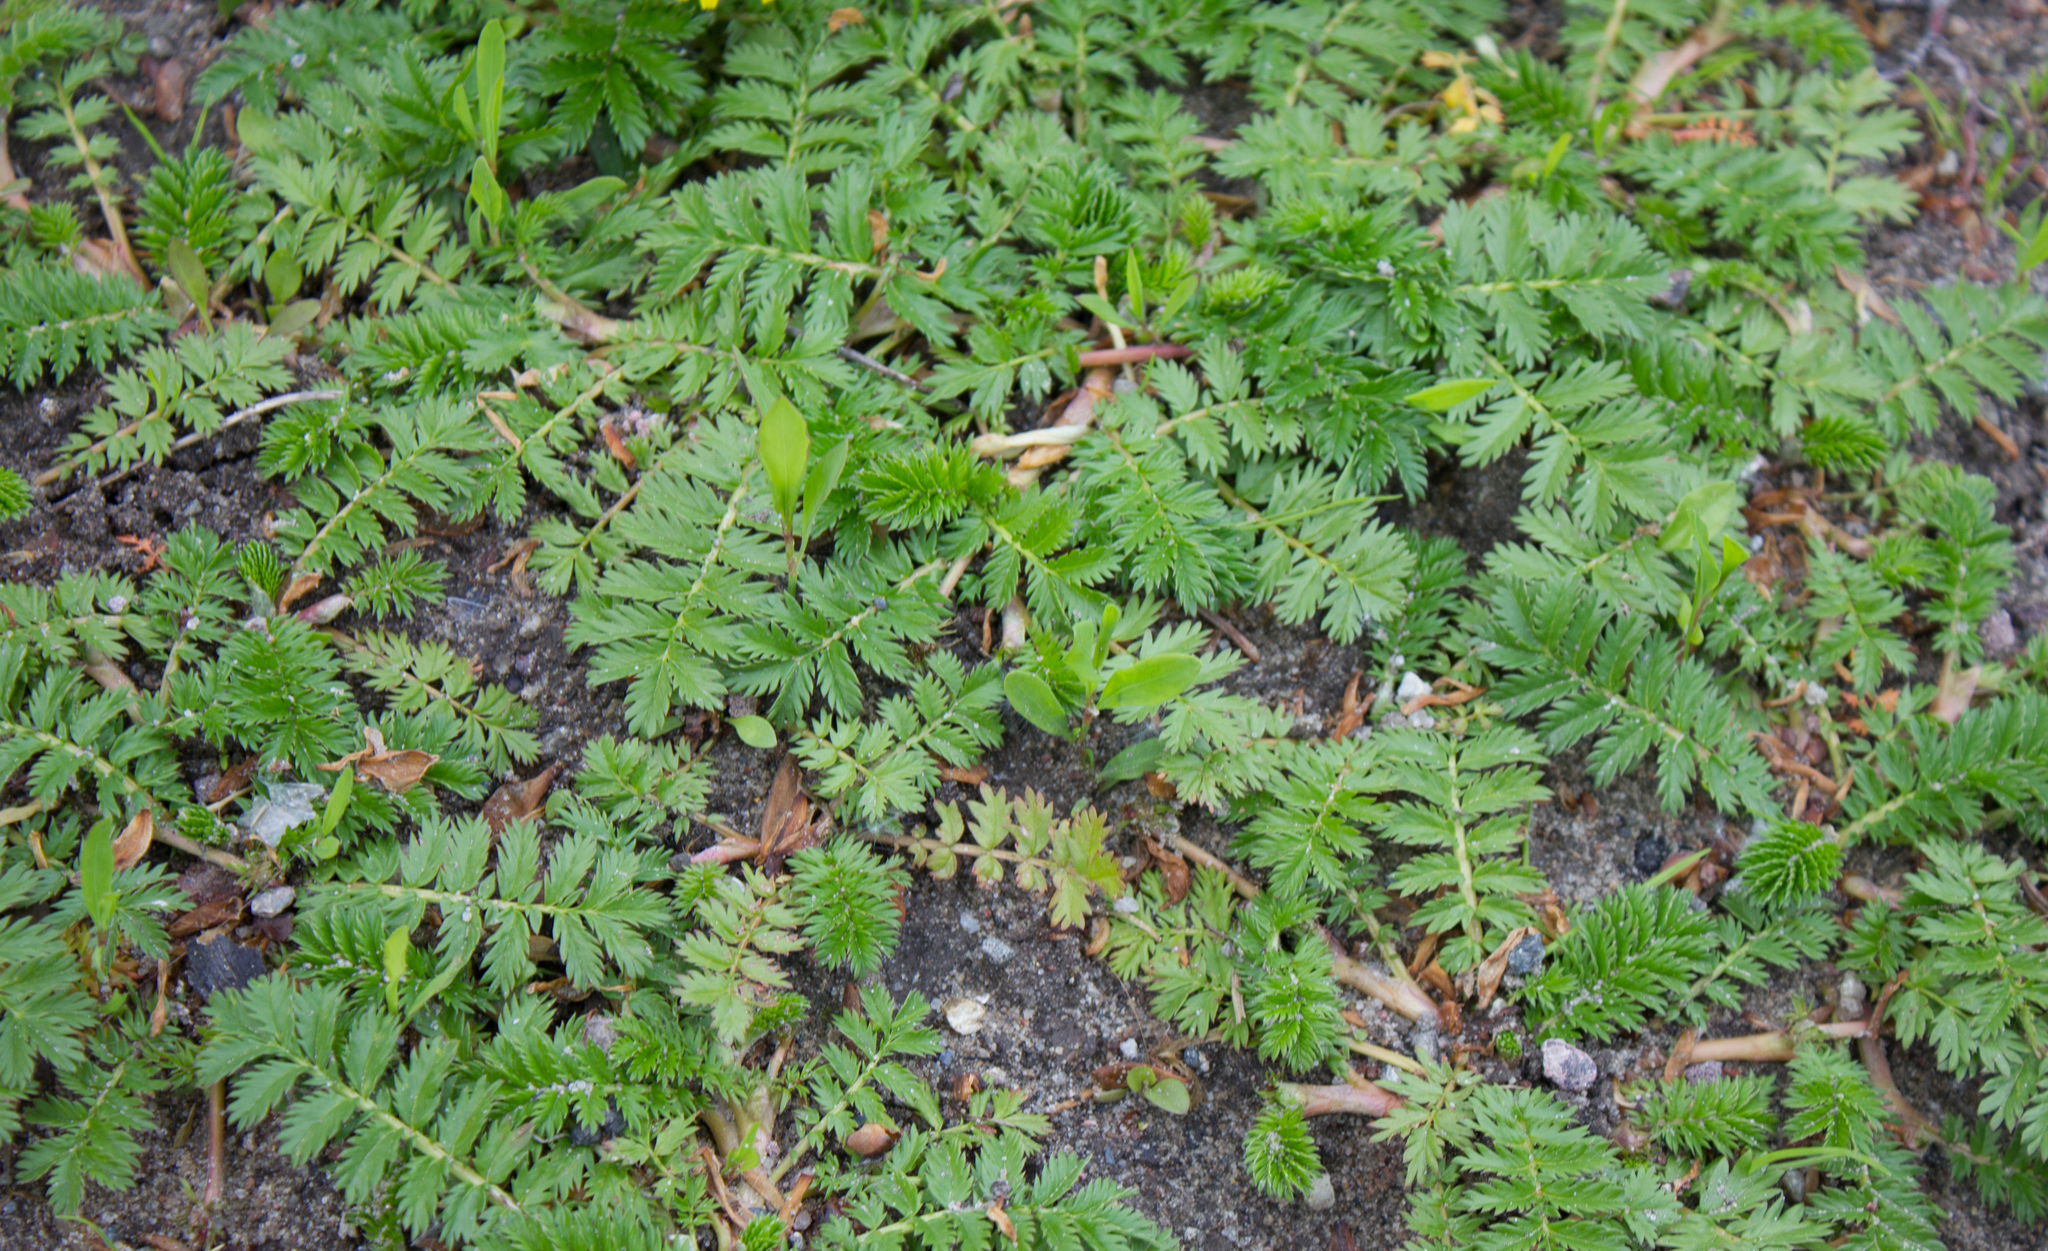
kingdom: Plantae
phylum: Tracheophyta
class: Magnoliopsida
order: Rosales
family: Rosaceae
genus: Argentina
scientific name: Argentina anserina
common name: Common silverweed
